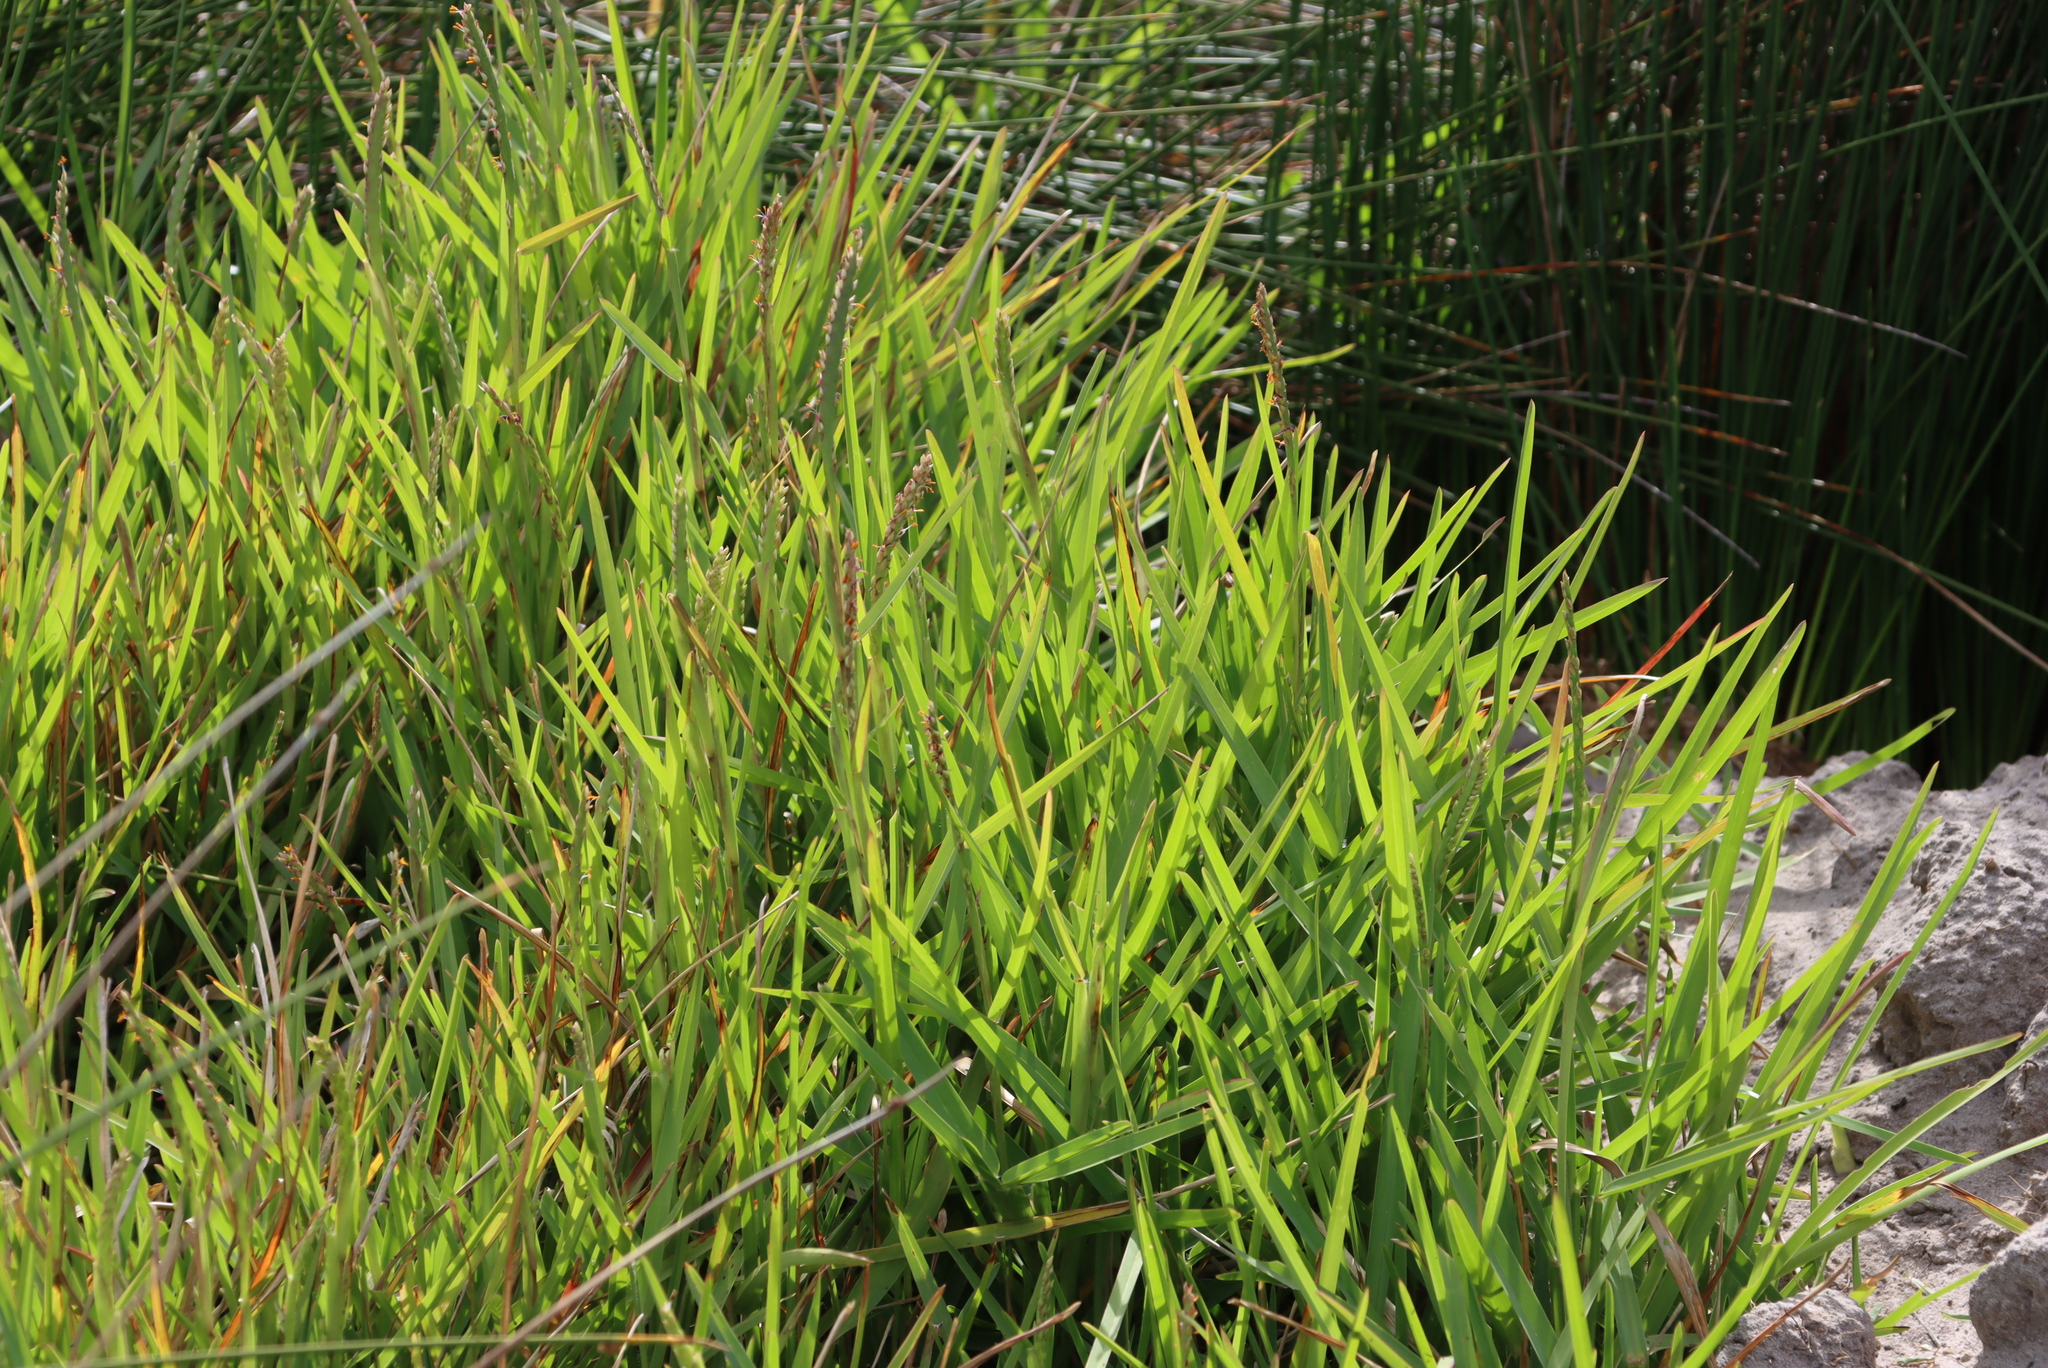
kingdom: Plantae
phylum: Tracheophyta
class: Liliopsida
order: Poales
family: Poaceae
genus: Stenotaphrum
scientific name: Stenotaphrum secundatum
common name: St. augustine grass
